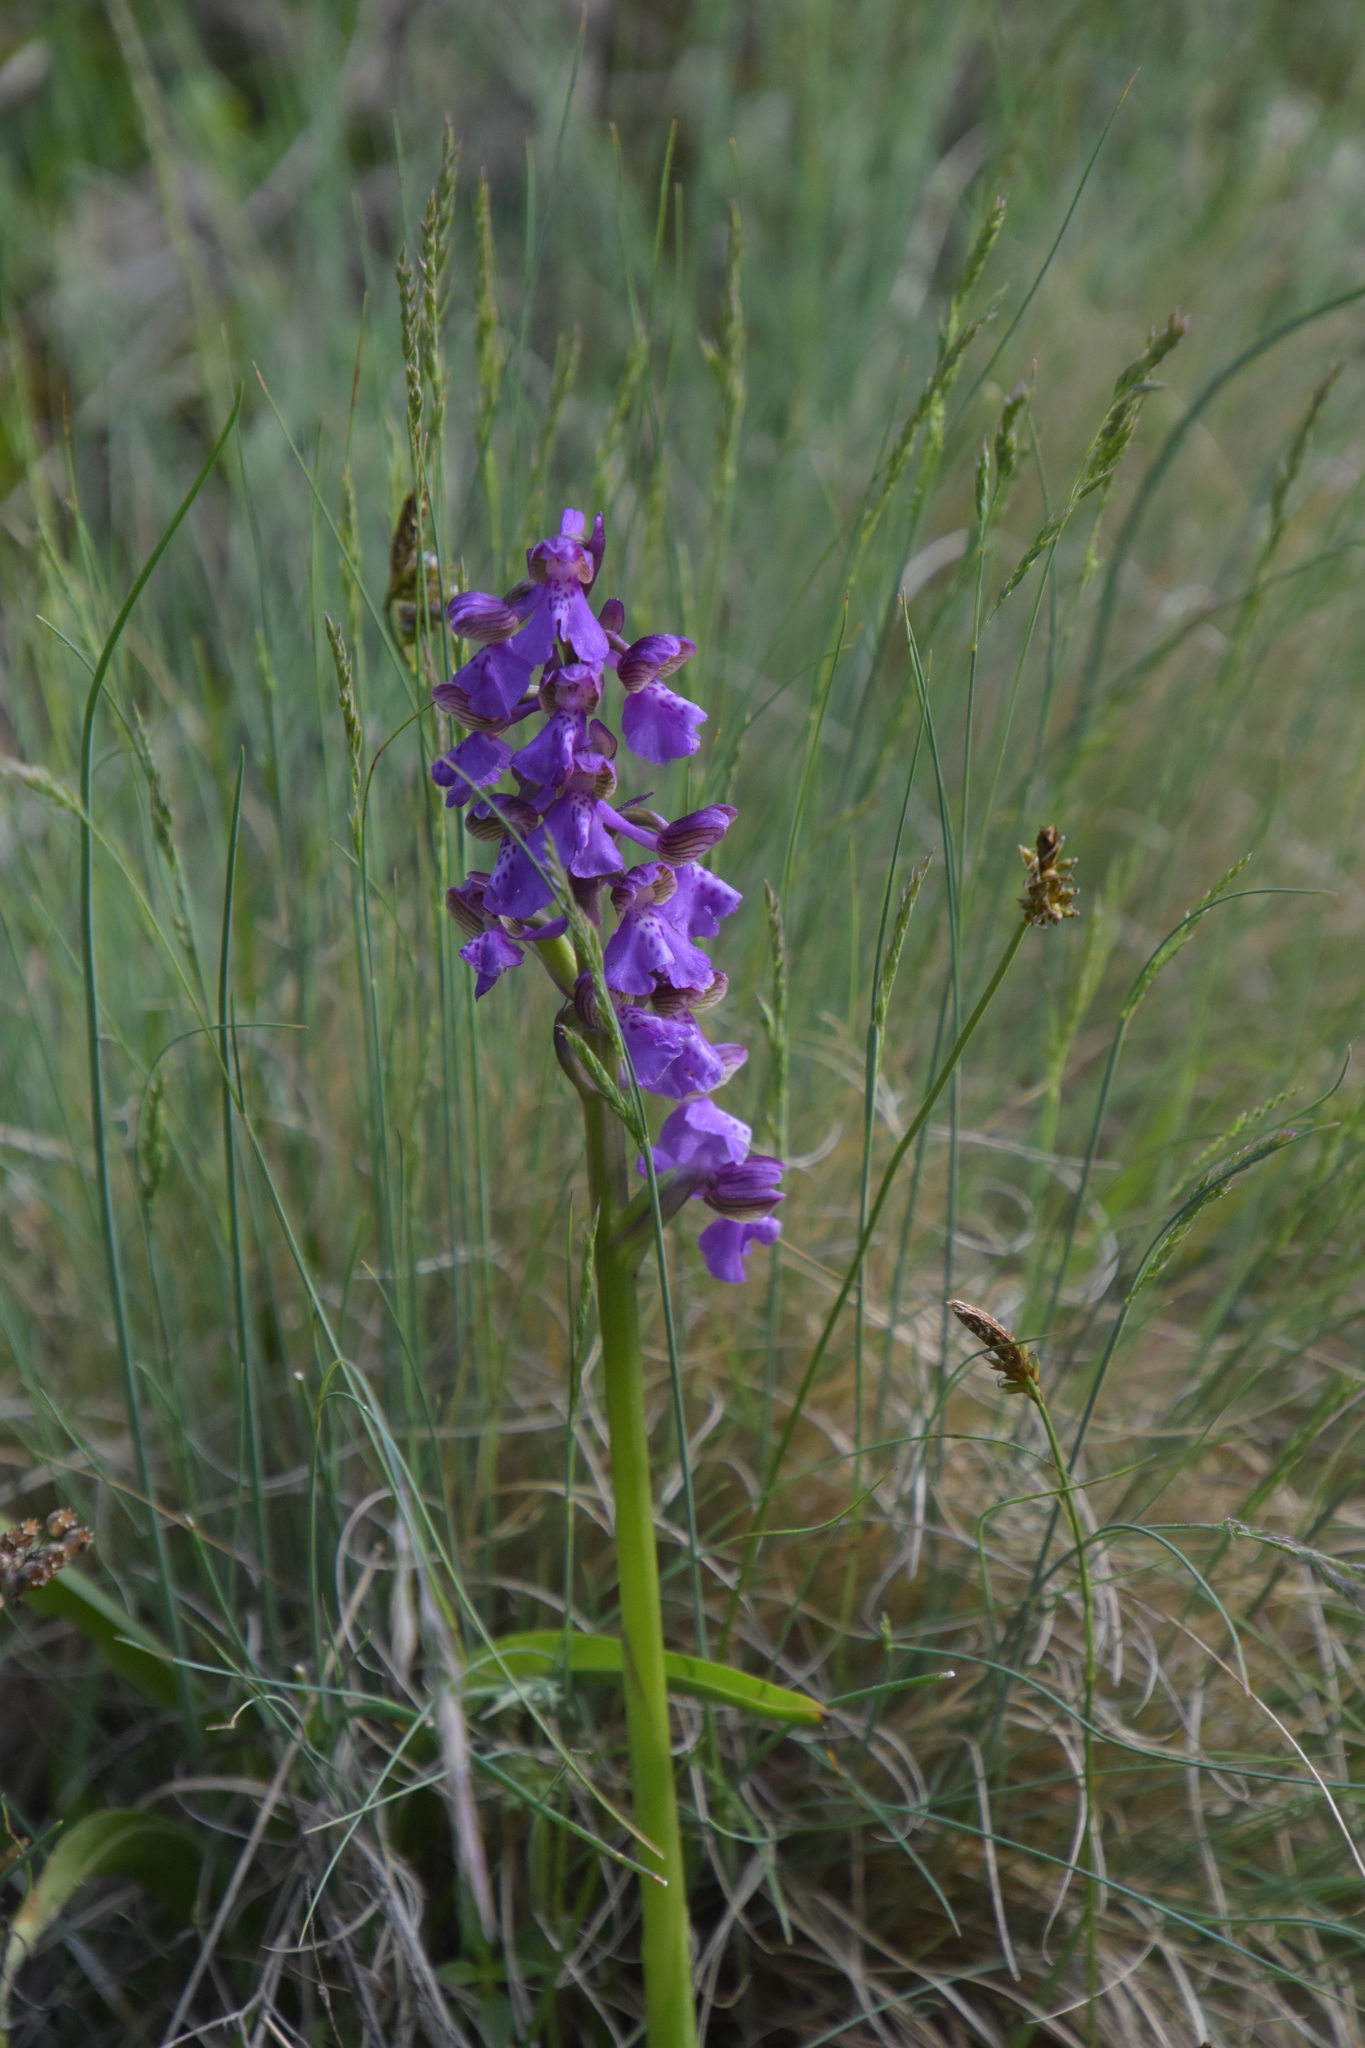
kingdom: Plantae
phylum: Tracheophyta
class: Liliopsida
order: Asparagales
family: Orchidaceae
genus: Anacamptis
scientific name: Anacamptis morio
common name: Green-winged orchid
